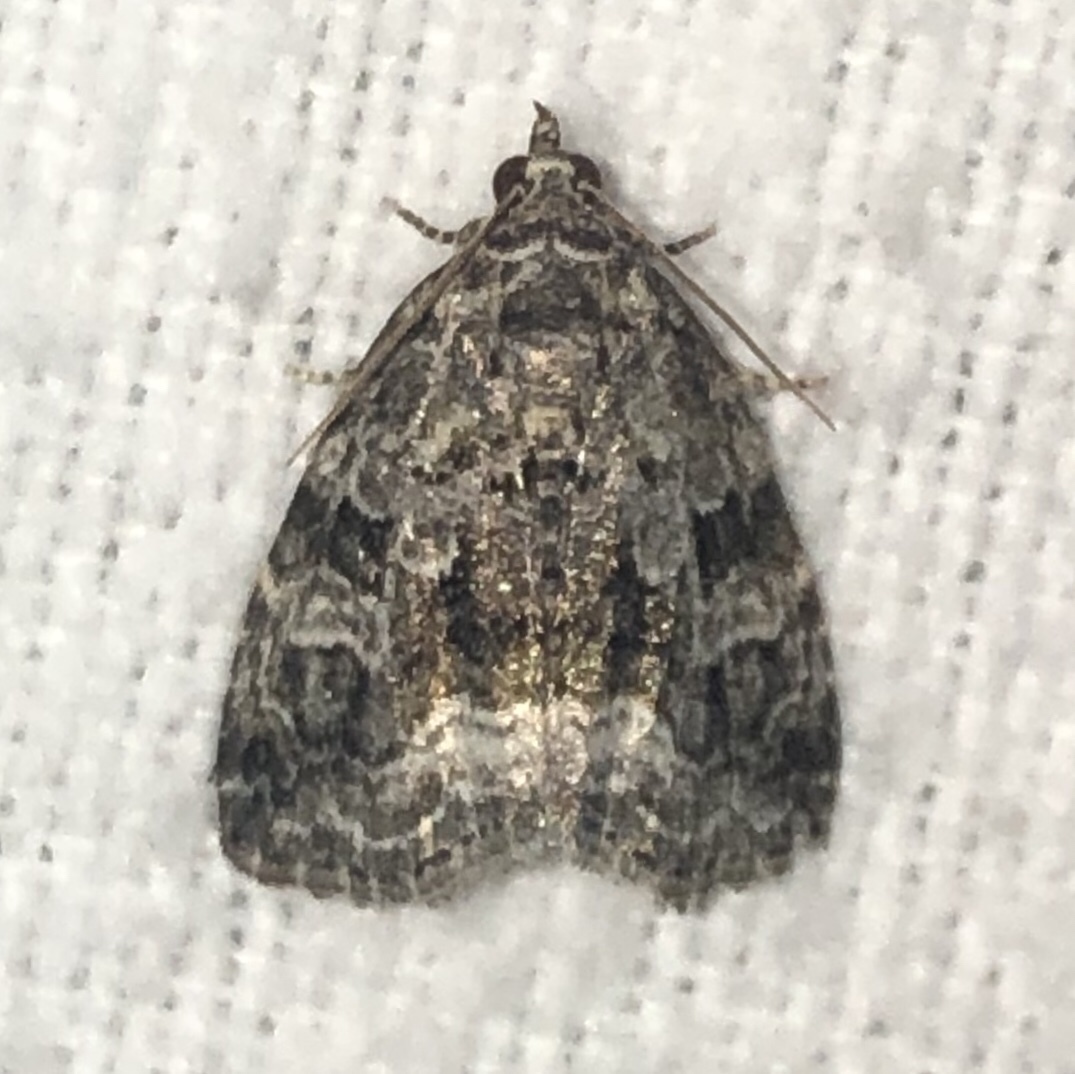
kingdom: Animalia
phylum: Arthropoda
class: Insecta
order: Lepidoptera
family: Noctuidae
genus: Protodeltote
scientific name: Protodeltote muscosula
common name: Large mossy glyph
